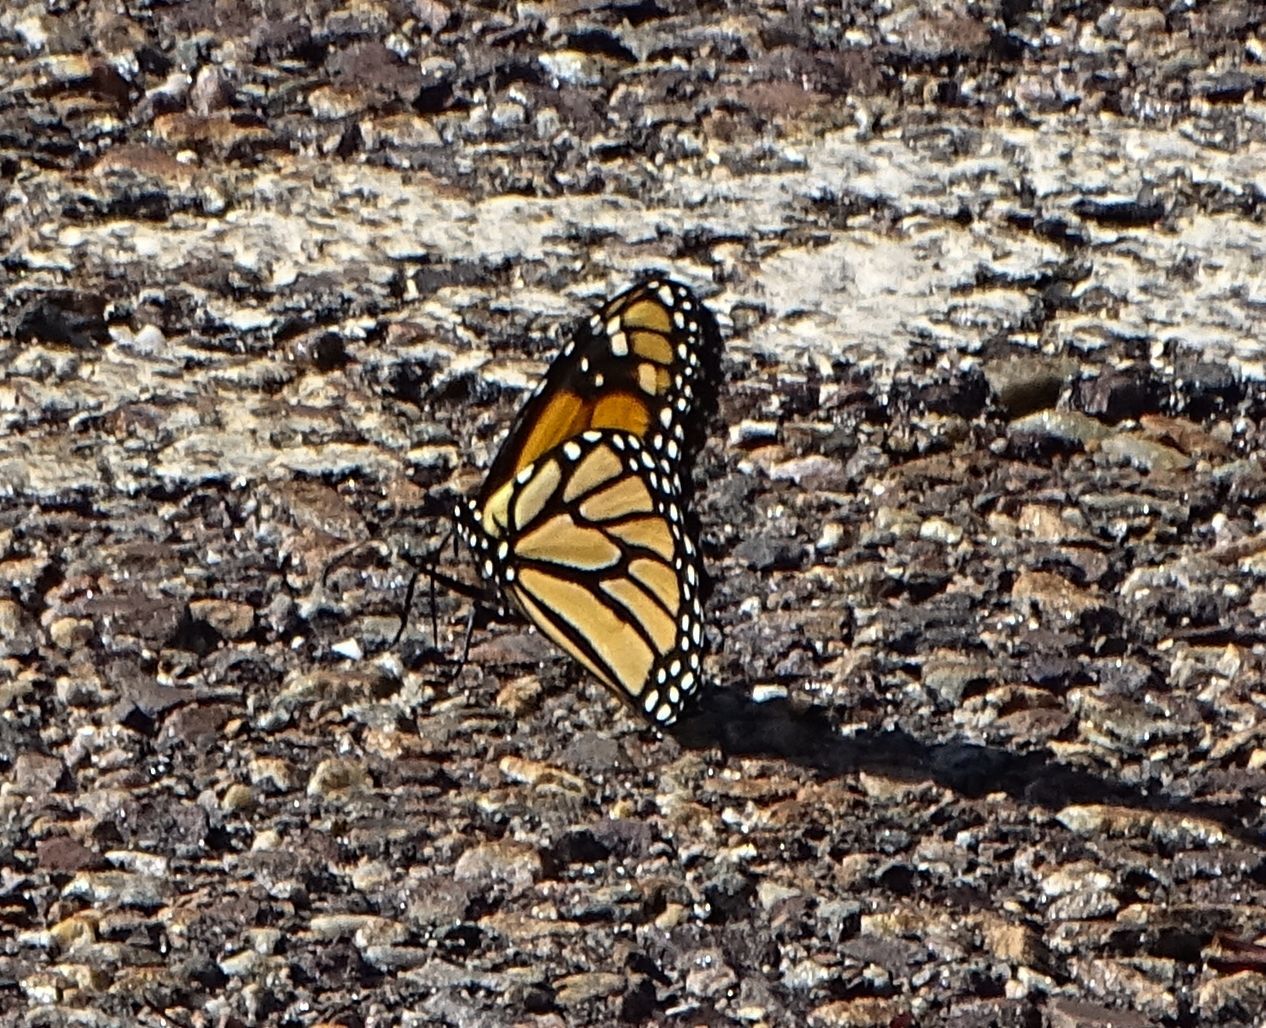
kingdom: Animalia
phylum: Arthropoda
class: Insecta
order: Lepidoptera
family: Nymphalidae
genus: Danaus
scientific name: Danaus plexippus
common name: Monarch
